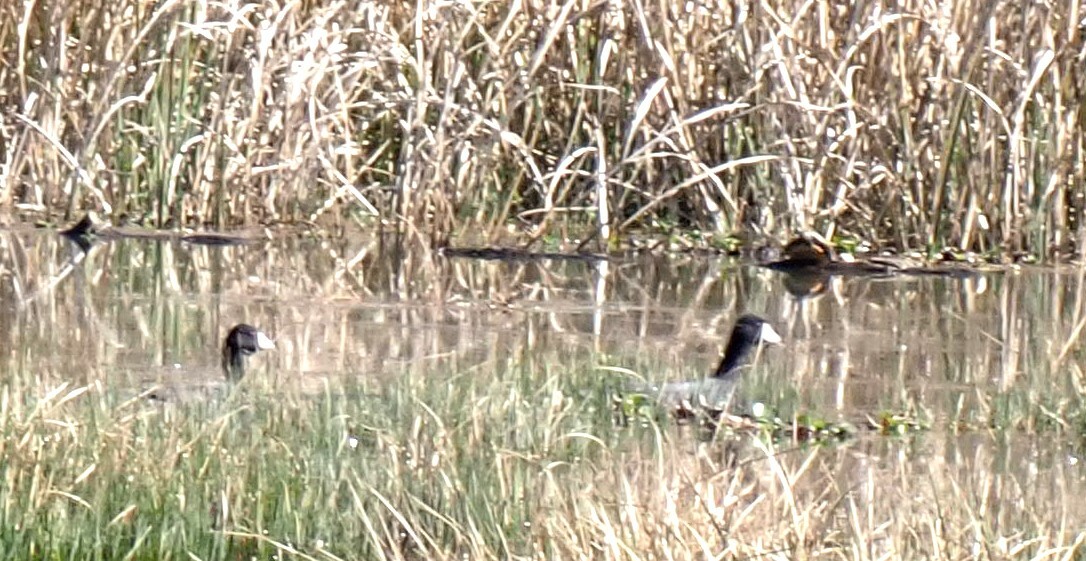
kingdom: Animalia
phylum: Chordata
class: Aves
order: Gruiformes
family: Rallidae
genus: Fulica
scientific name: Fulica americana
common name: American coot
